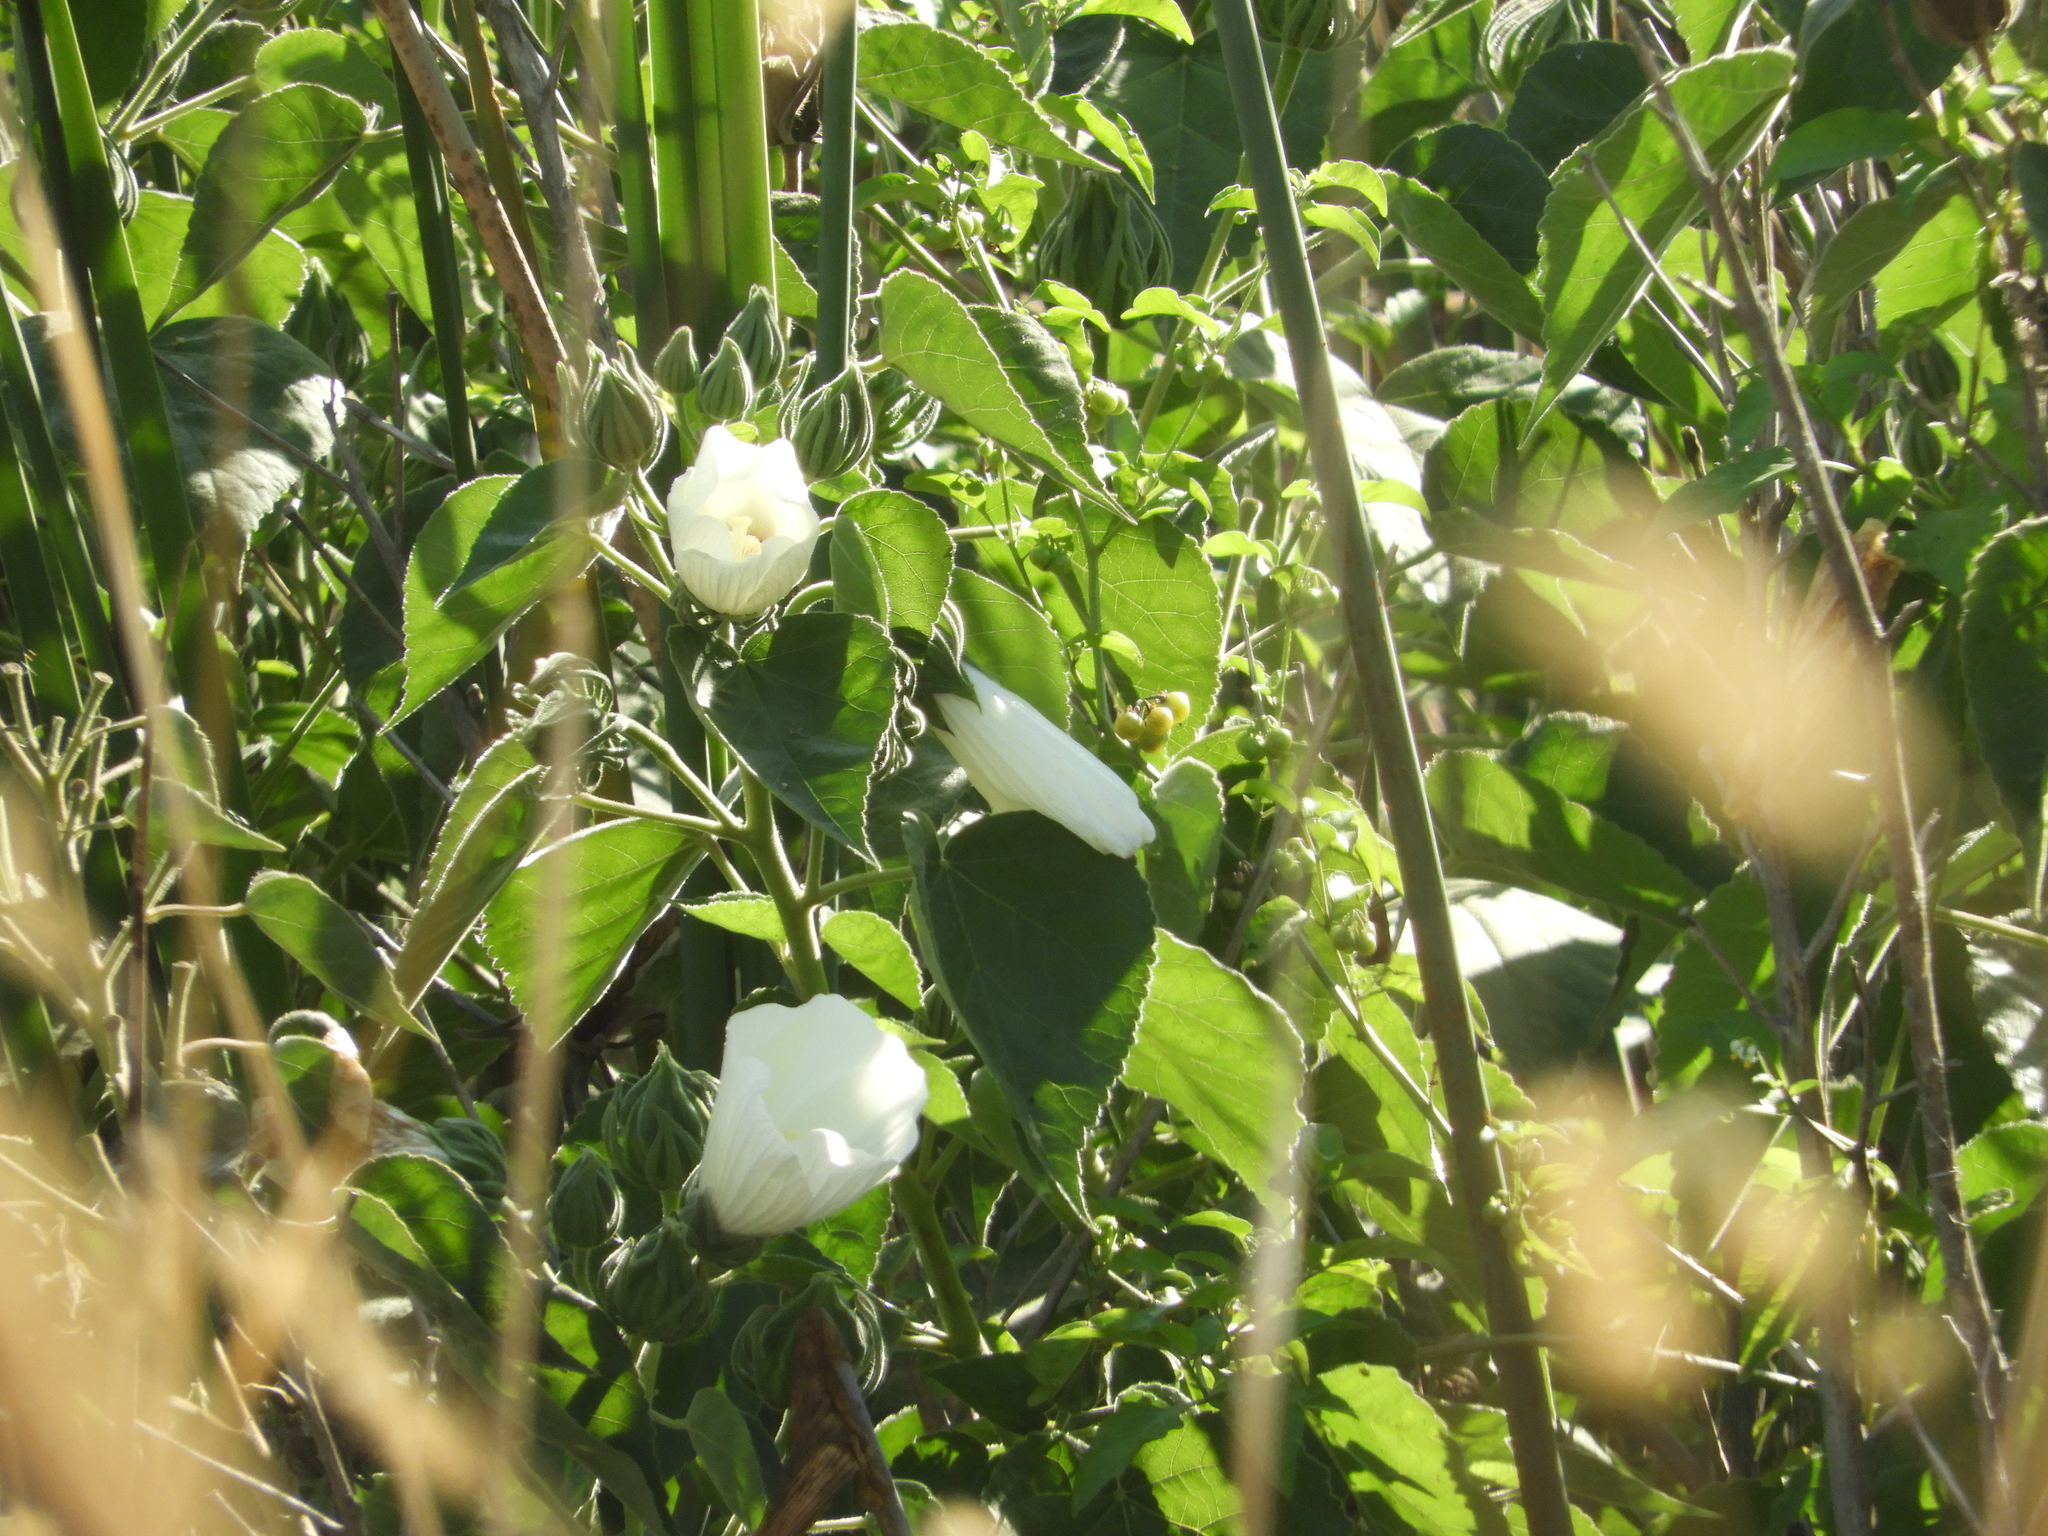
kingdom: Plantae
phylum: Tracheophyta
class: Magnoliopsida
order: Malvales
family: Malvaceae
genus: Hibiscus
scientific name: Hibiscus moscheutos
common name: Common rose-mallow
